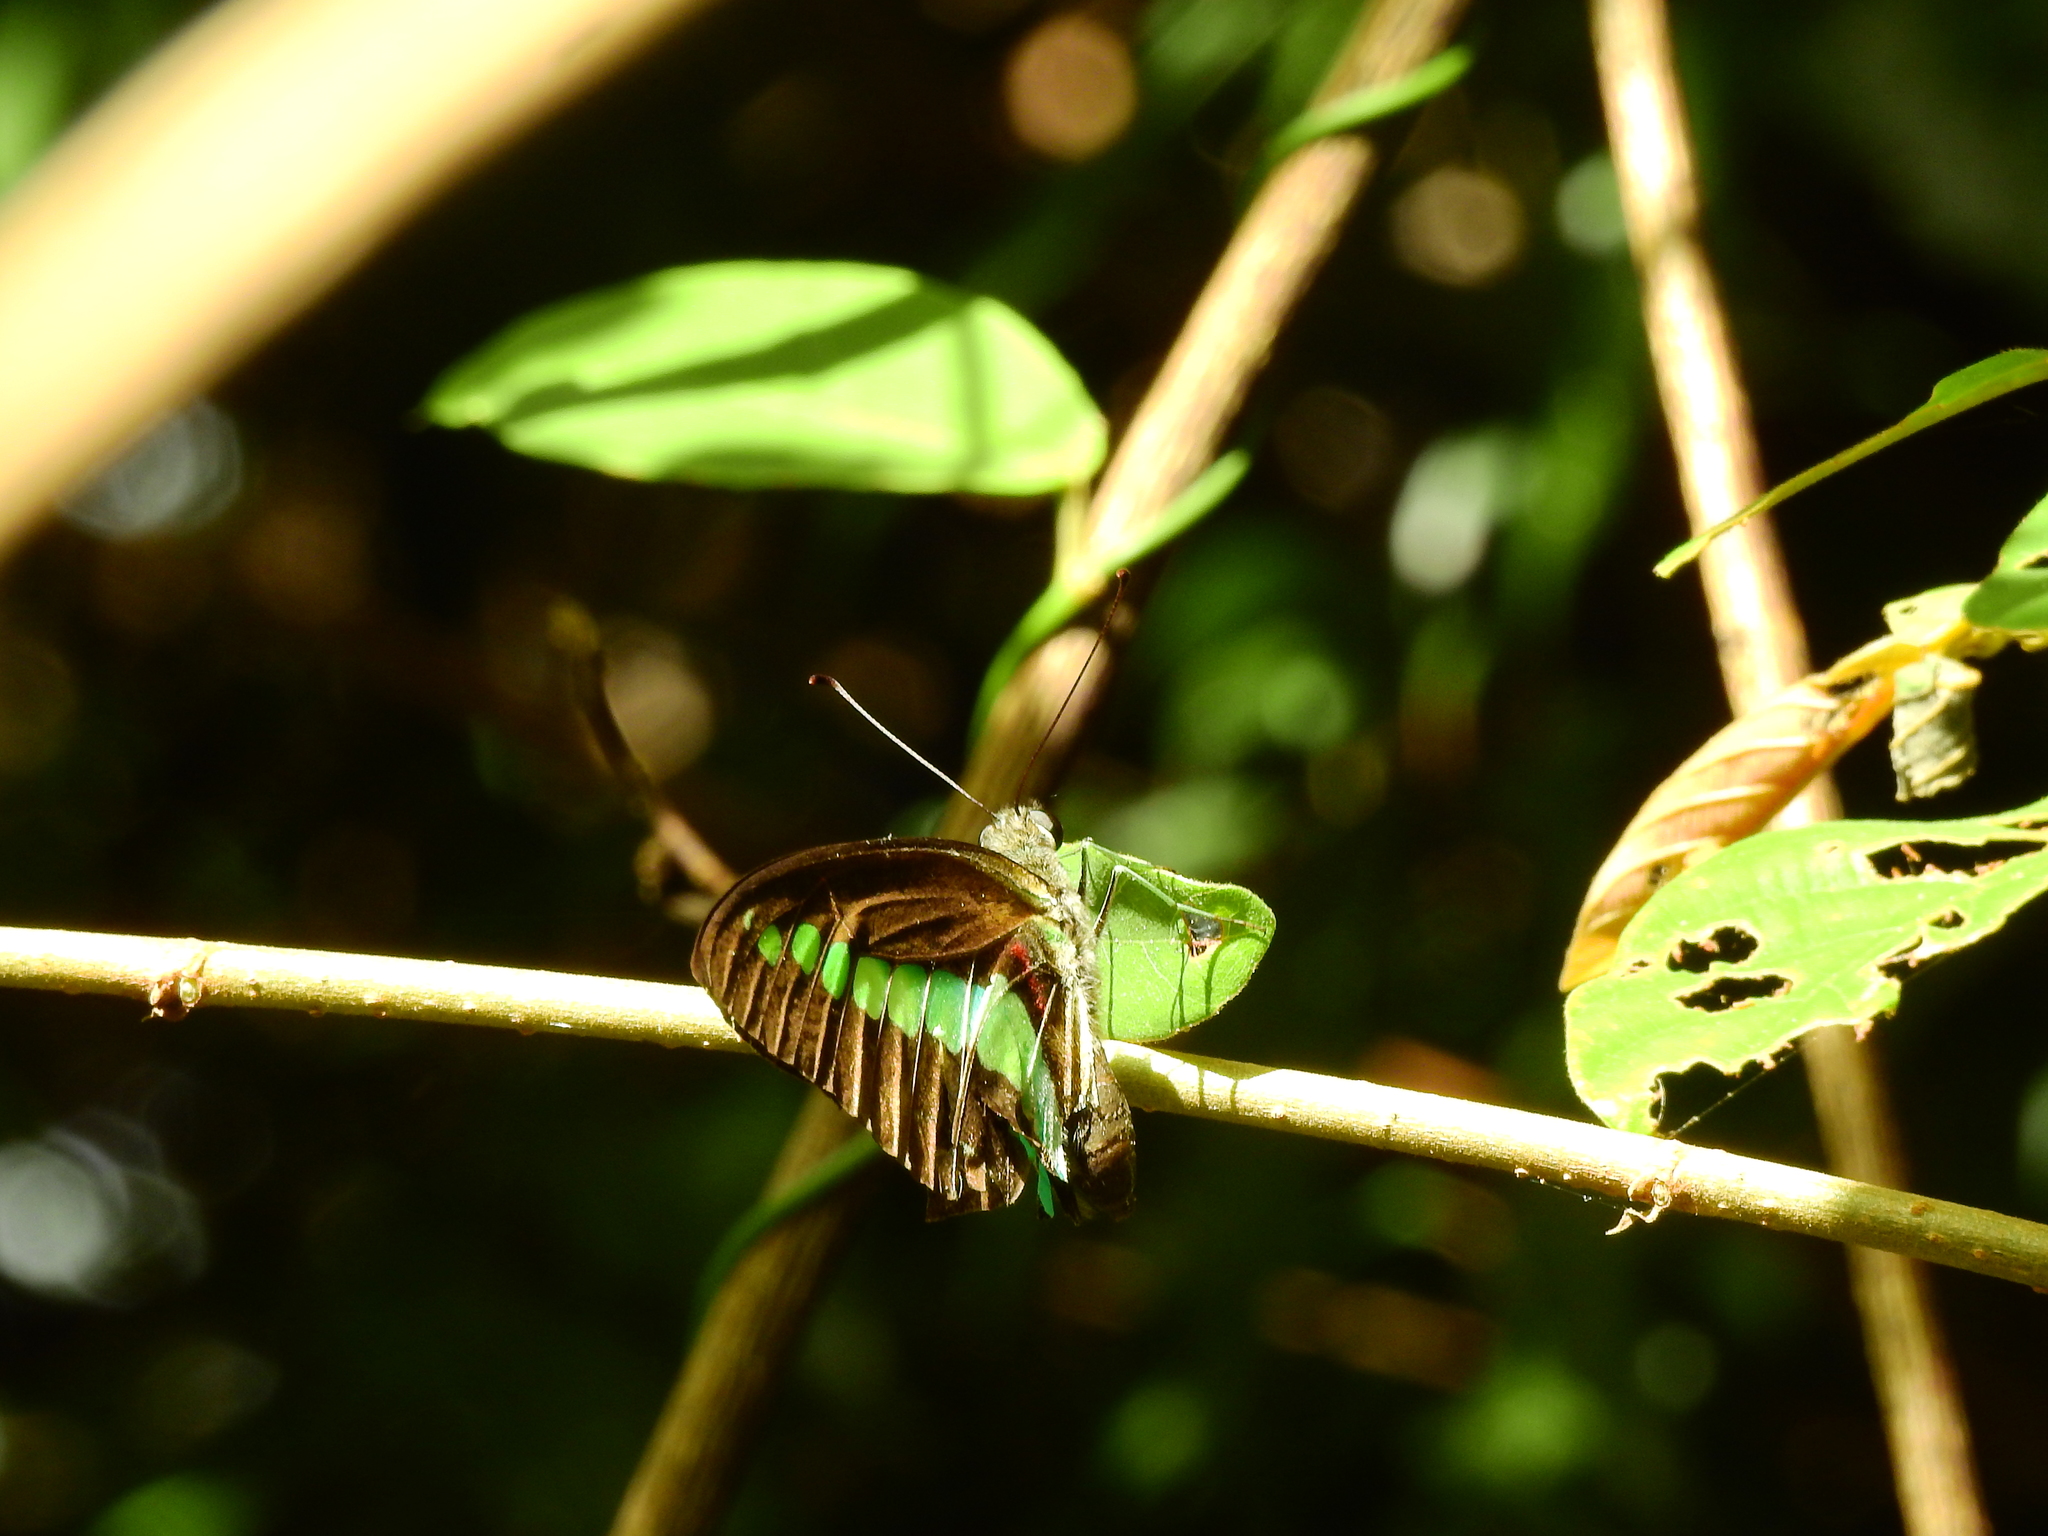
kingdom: Animalia
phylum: Arthropoda
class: Insecta
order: Lepidoptera
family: Papilionidae
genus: Graphium
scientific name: Graphium
